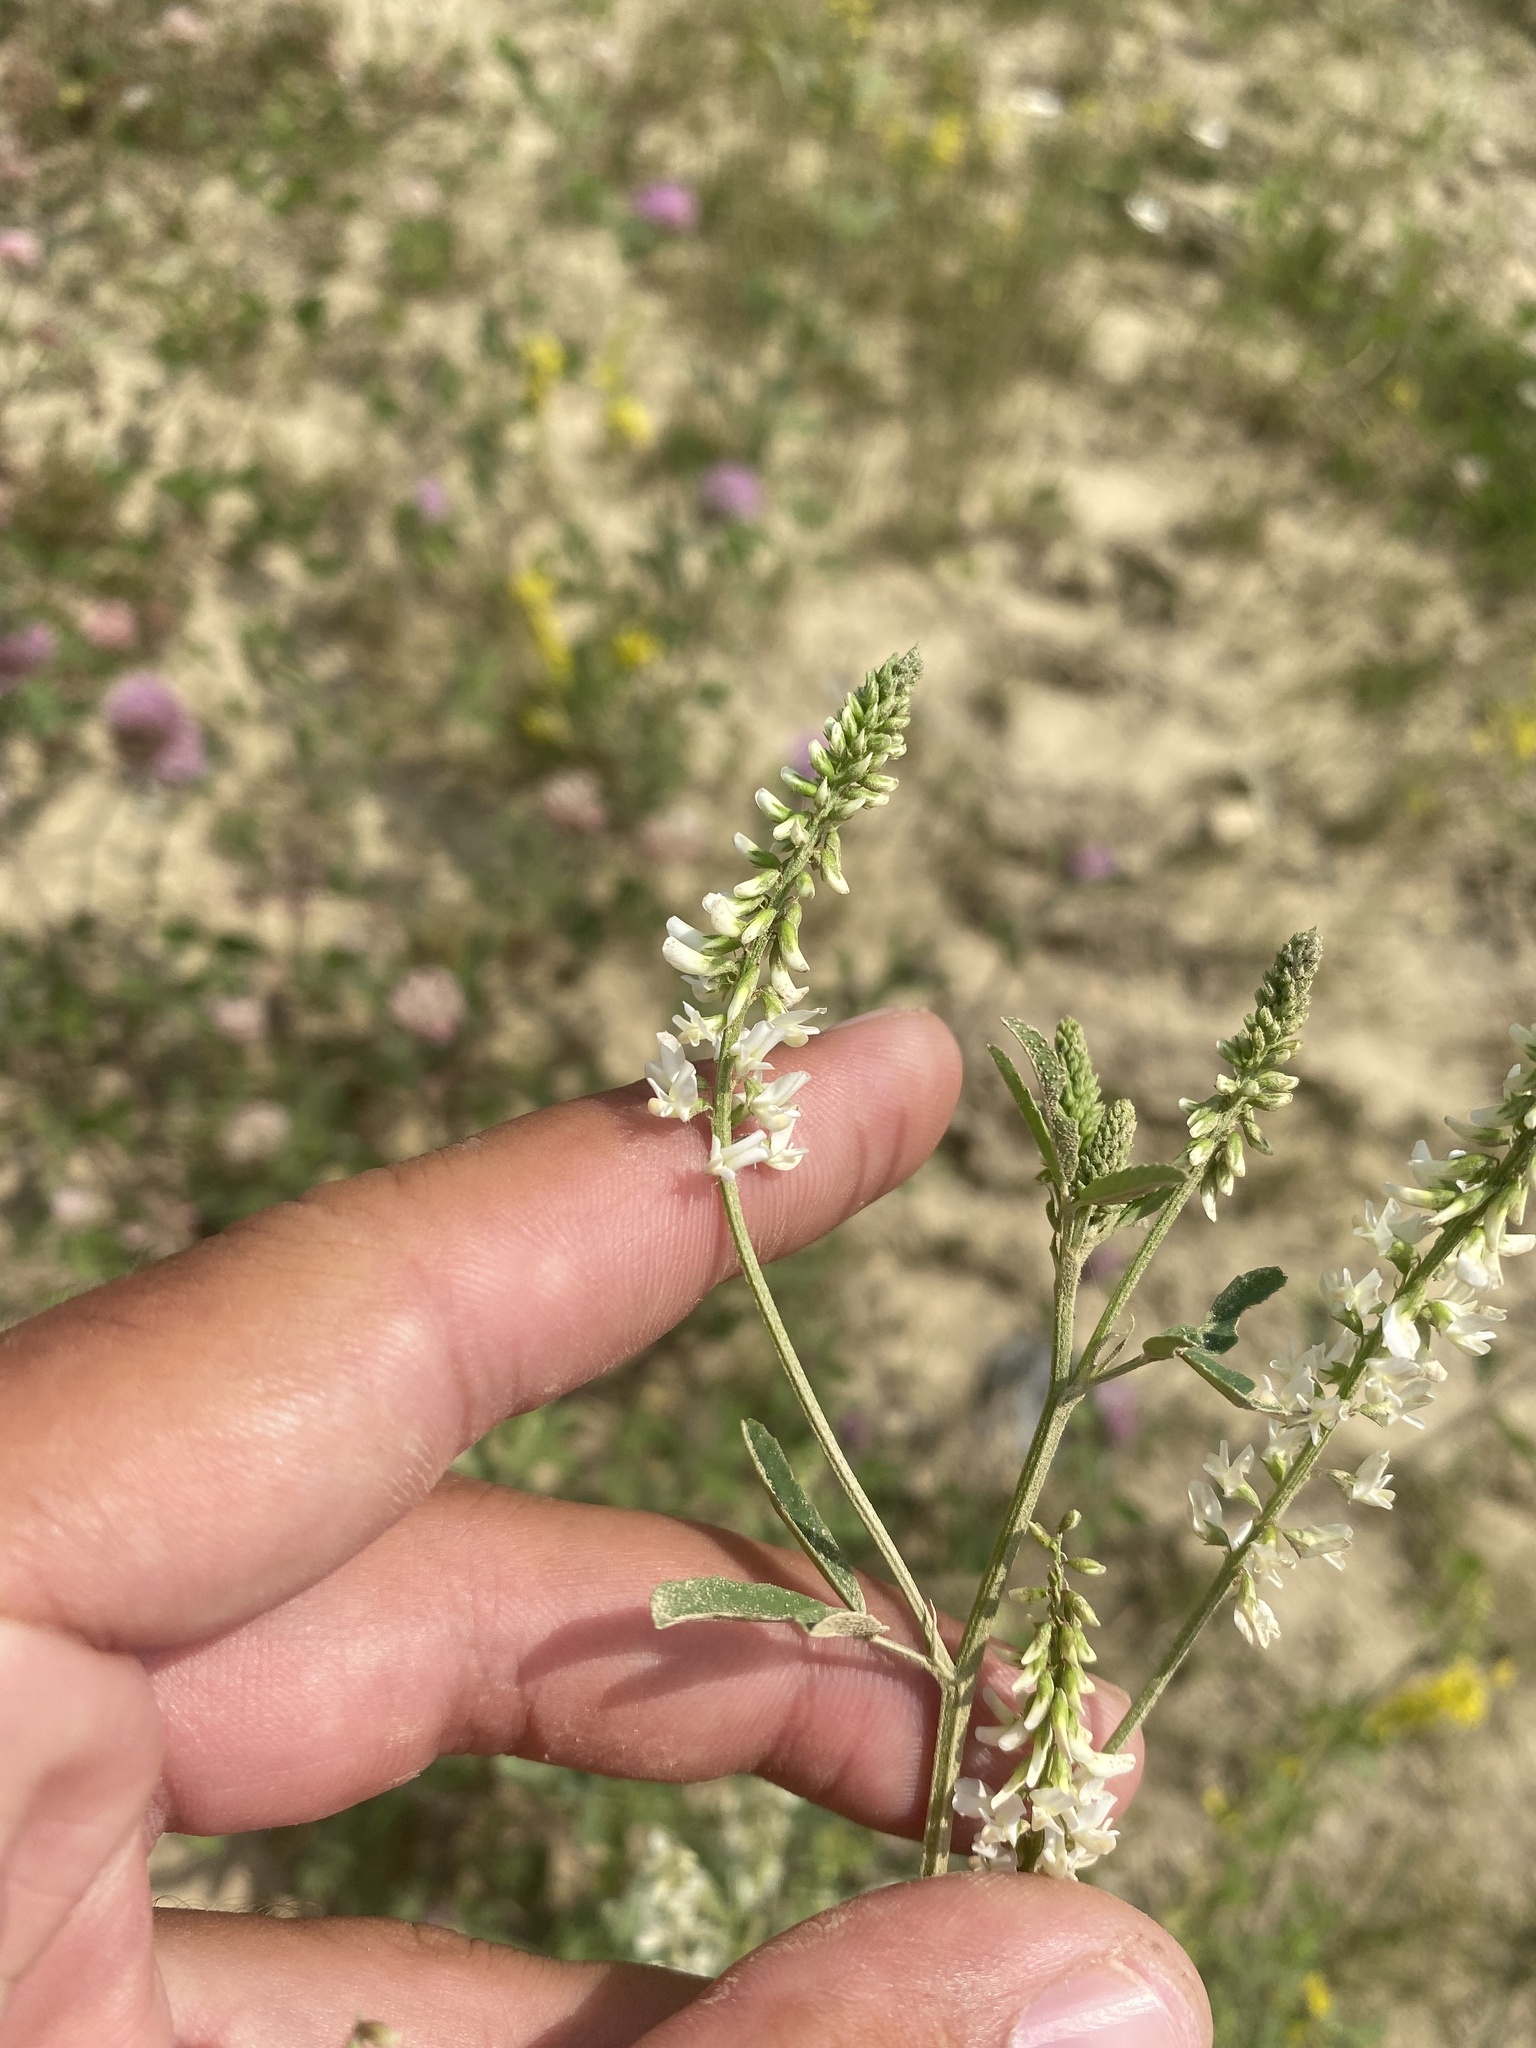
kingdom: Plantae
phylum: Tracheophyta
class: Magnoliopsida
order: Fabales
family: Fabaceae
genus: Melilotus
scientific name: Melilotus albus
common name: White melilot
